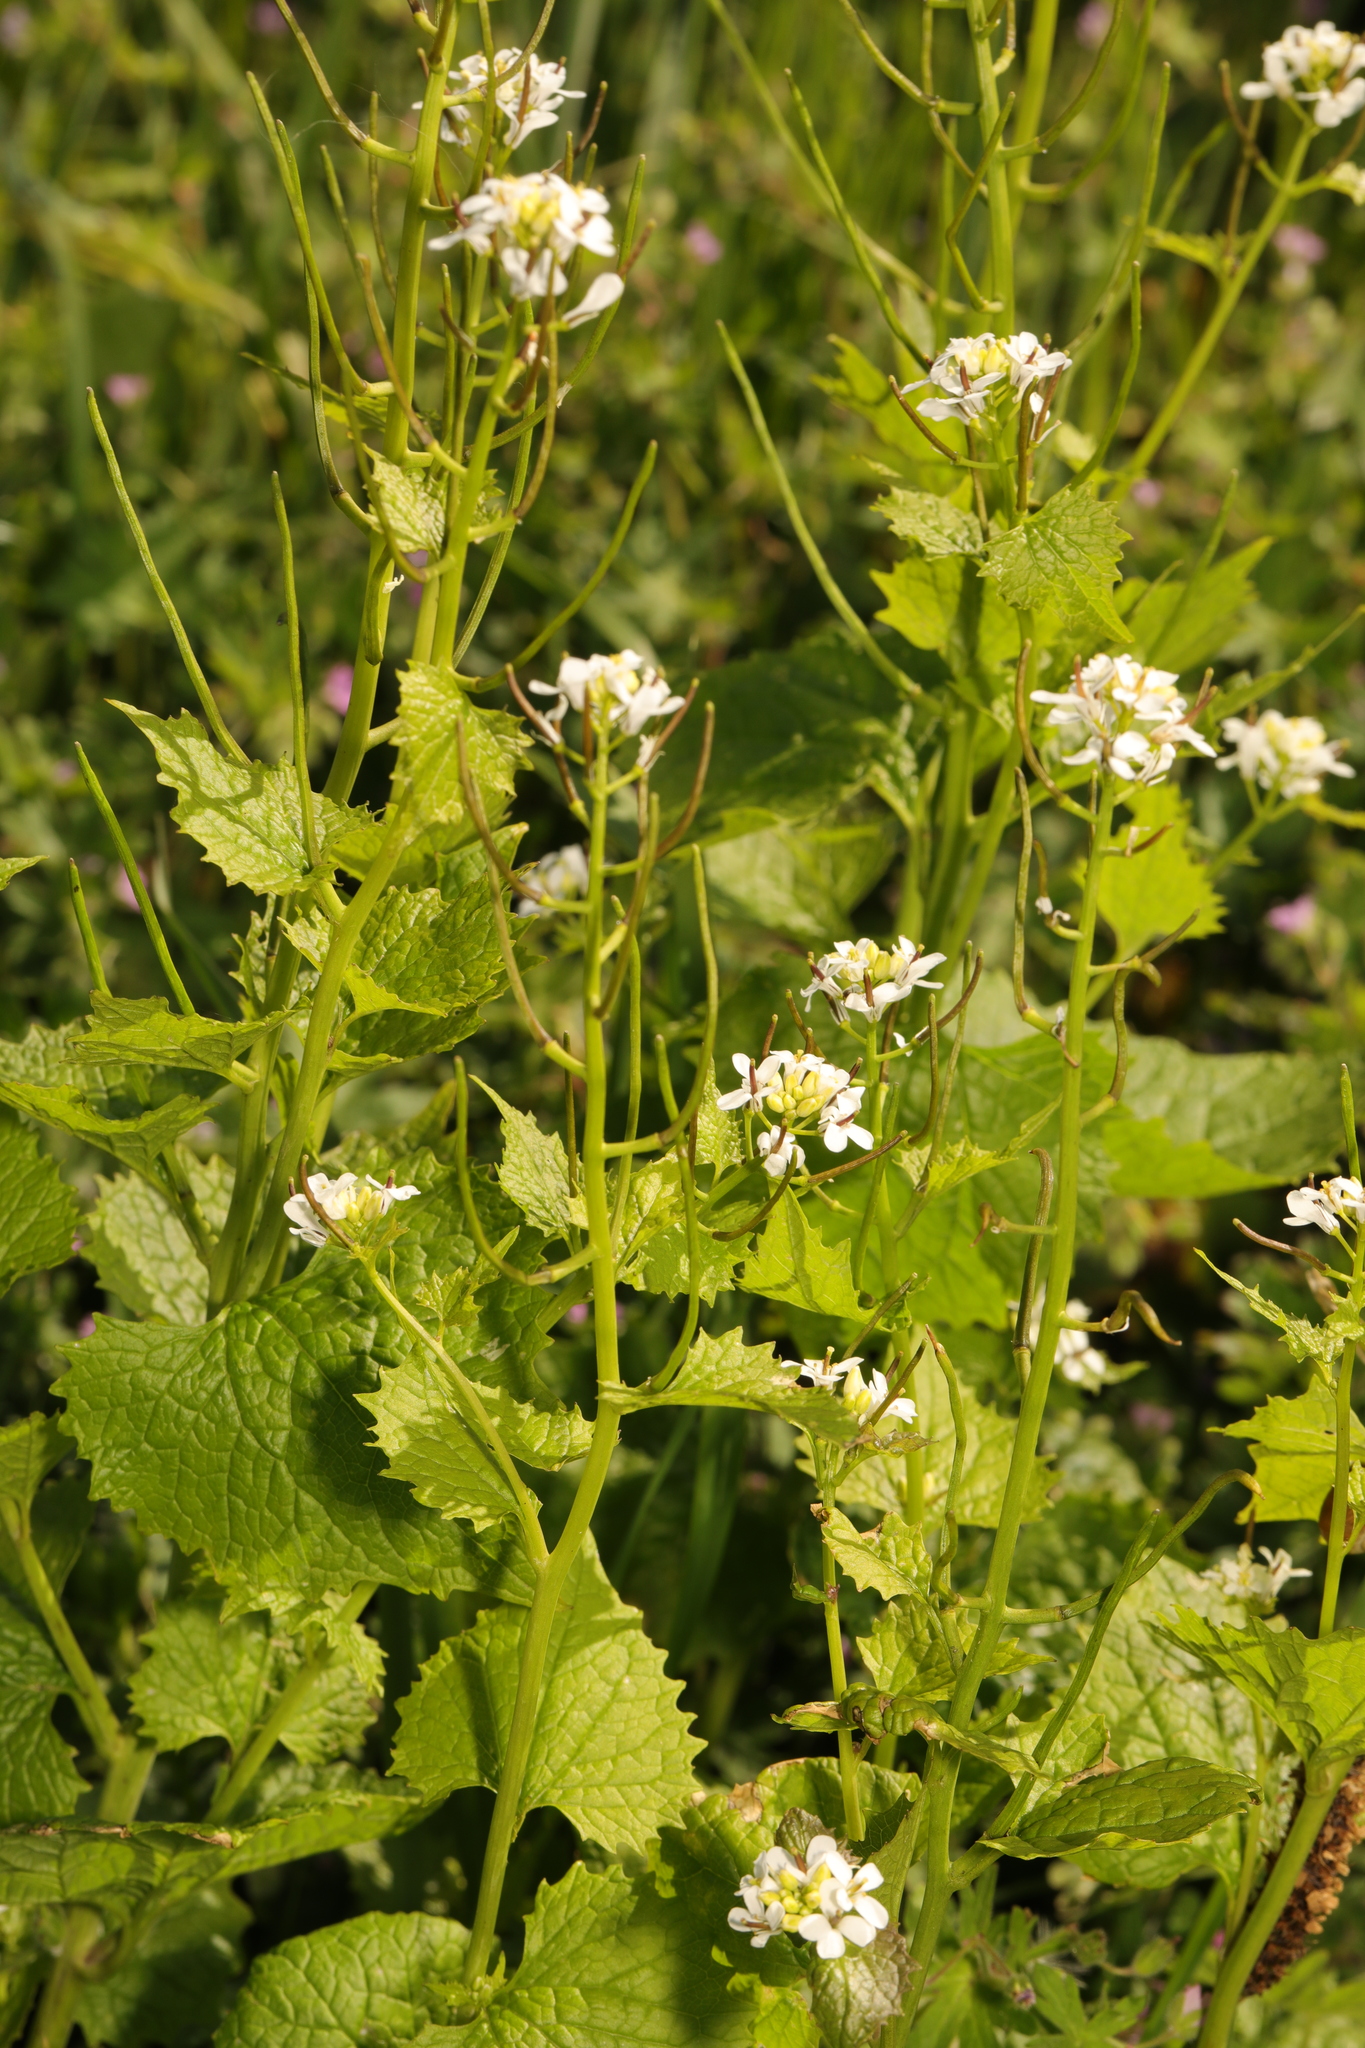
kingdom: Plantae
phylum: Tracheophyta
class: Magnoliopsida
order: Brassicales
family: Brassicaceae
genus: Alliaria
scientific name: Alliaria petiolata
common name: Garlic mustard
